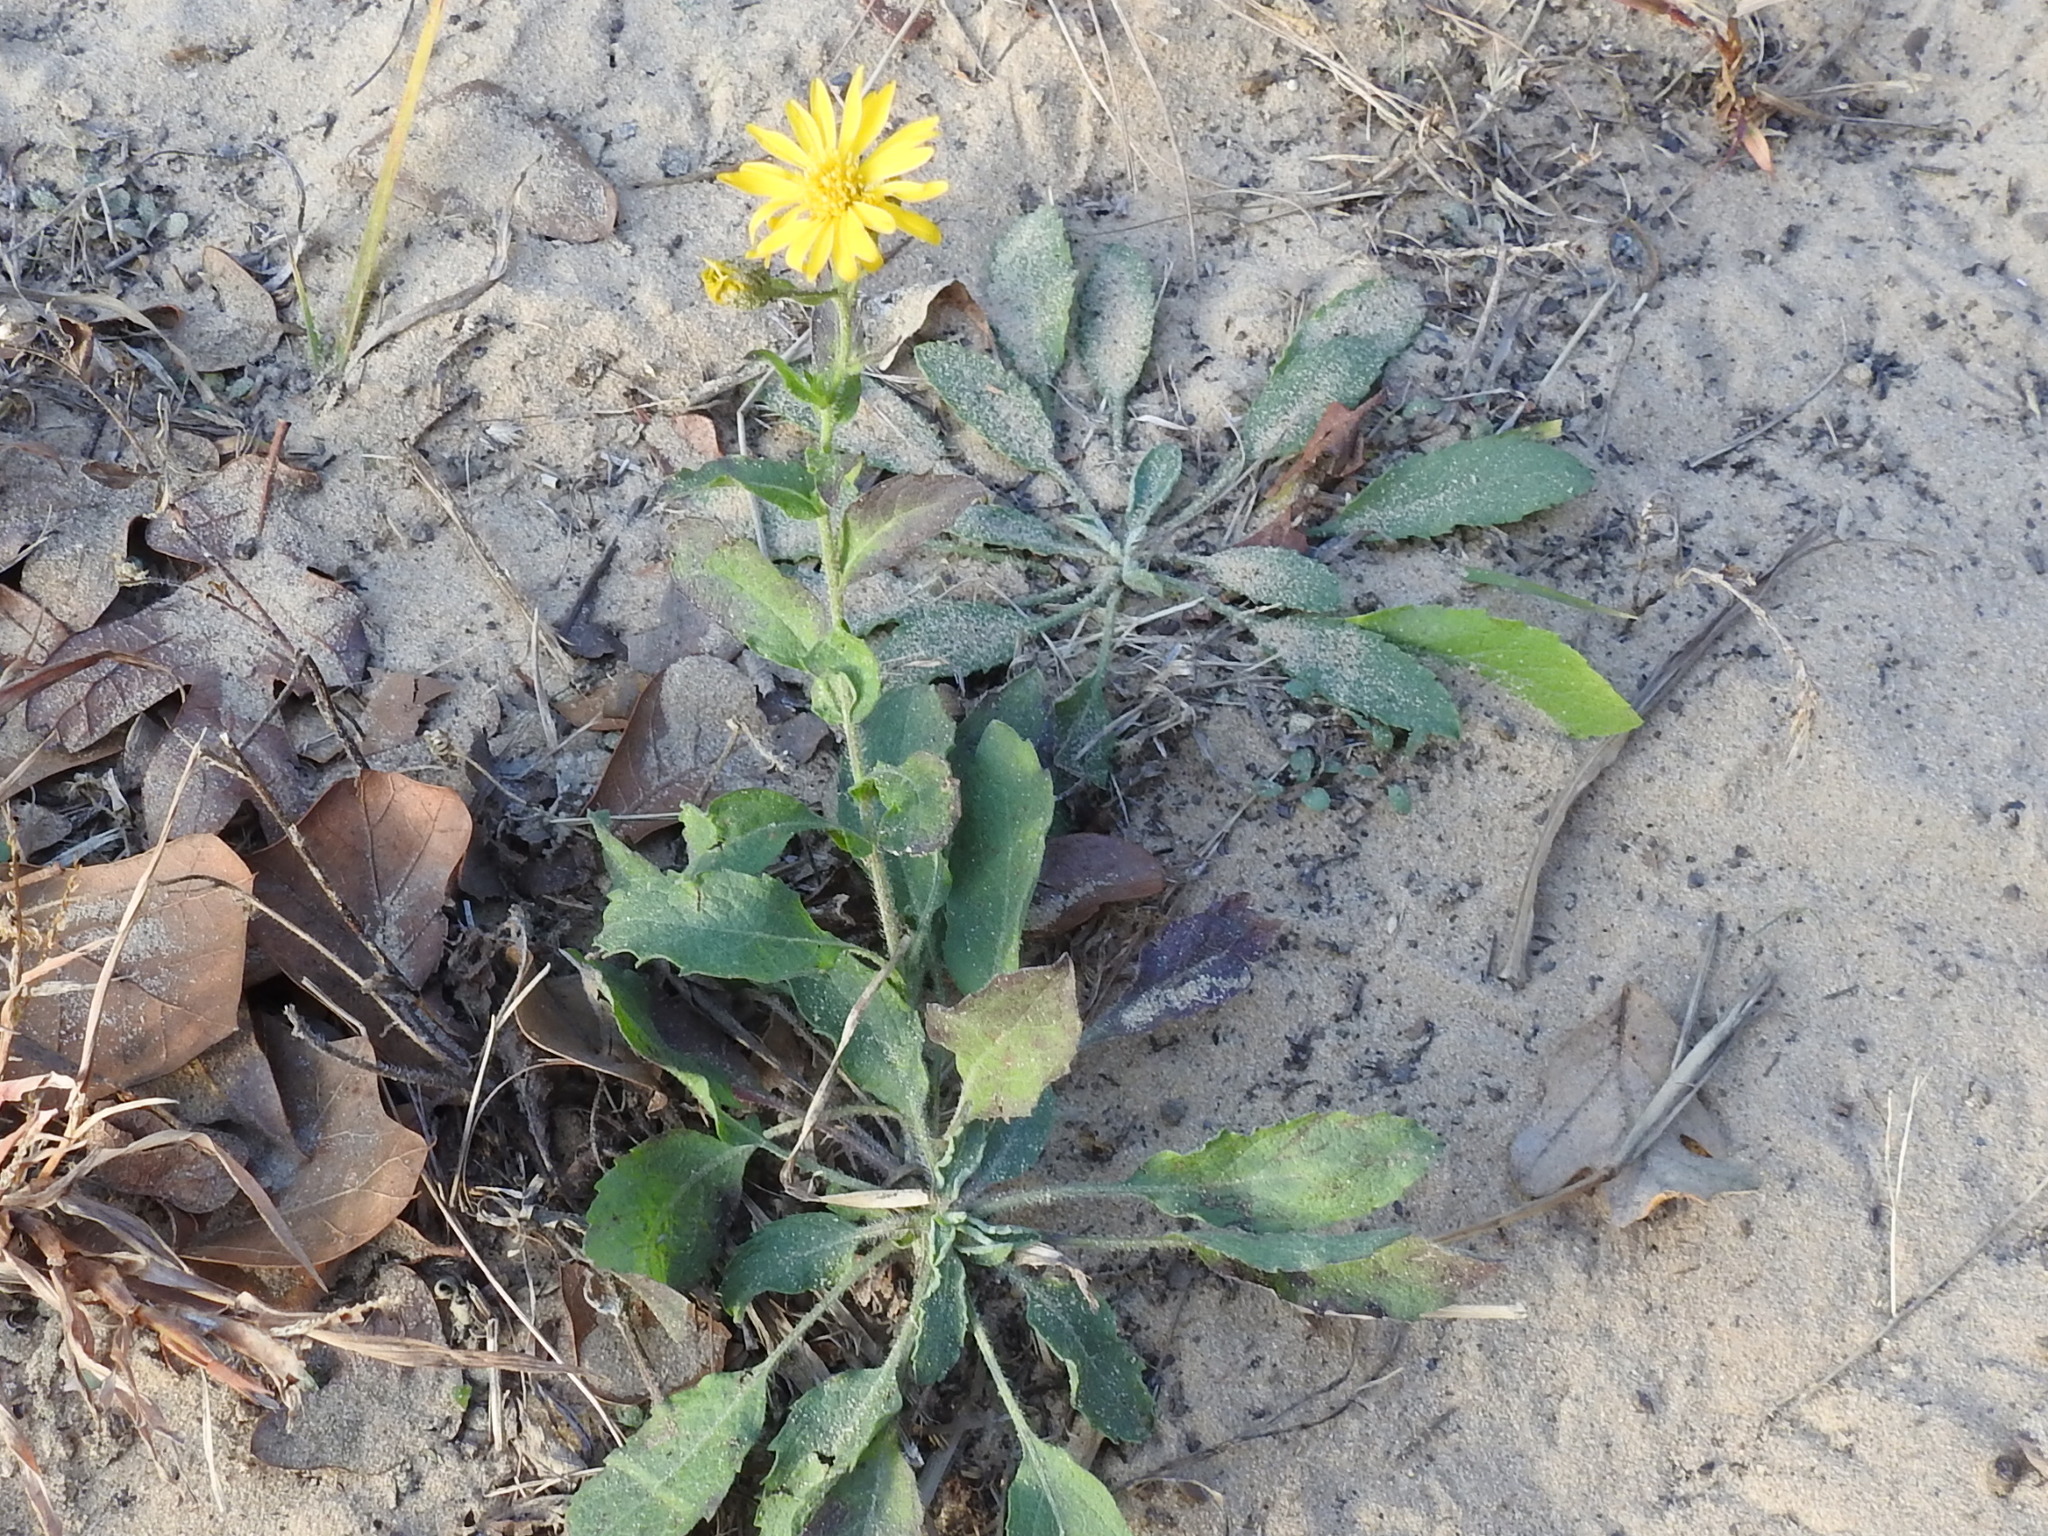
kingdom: Plantae
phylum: Tracheophyta
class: Magnoliopsida
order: Asterales
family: Asteraceae
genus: Heterotheca
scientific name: Heterotheca subaxillaris
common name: Camphorweed
